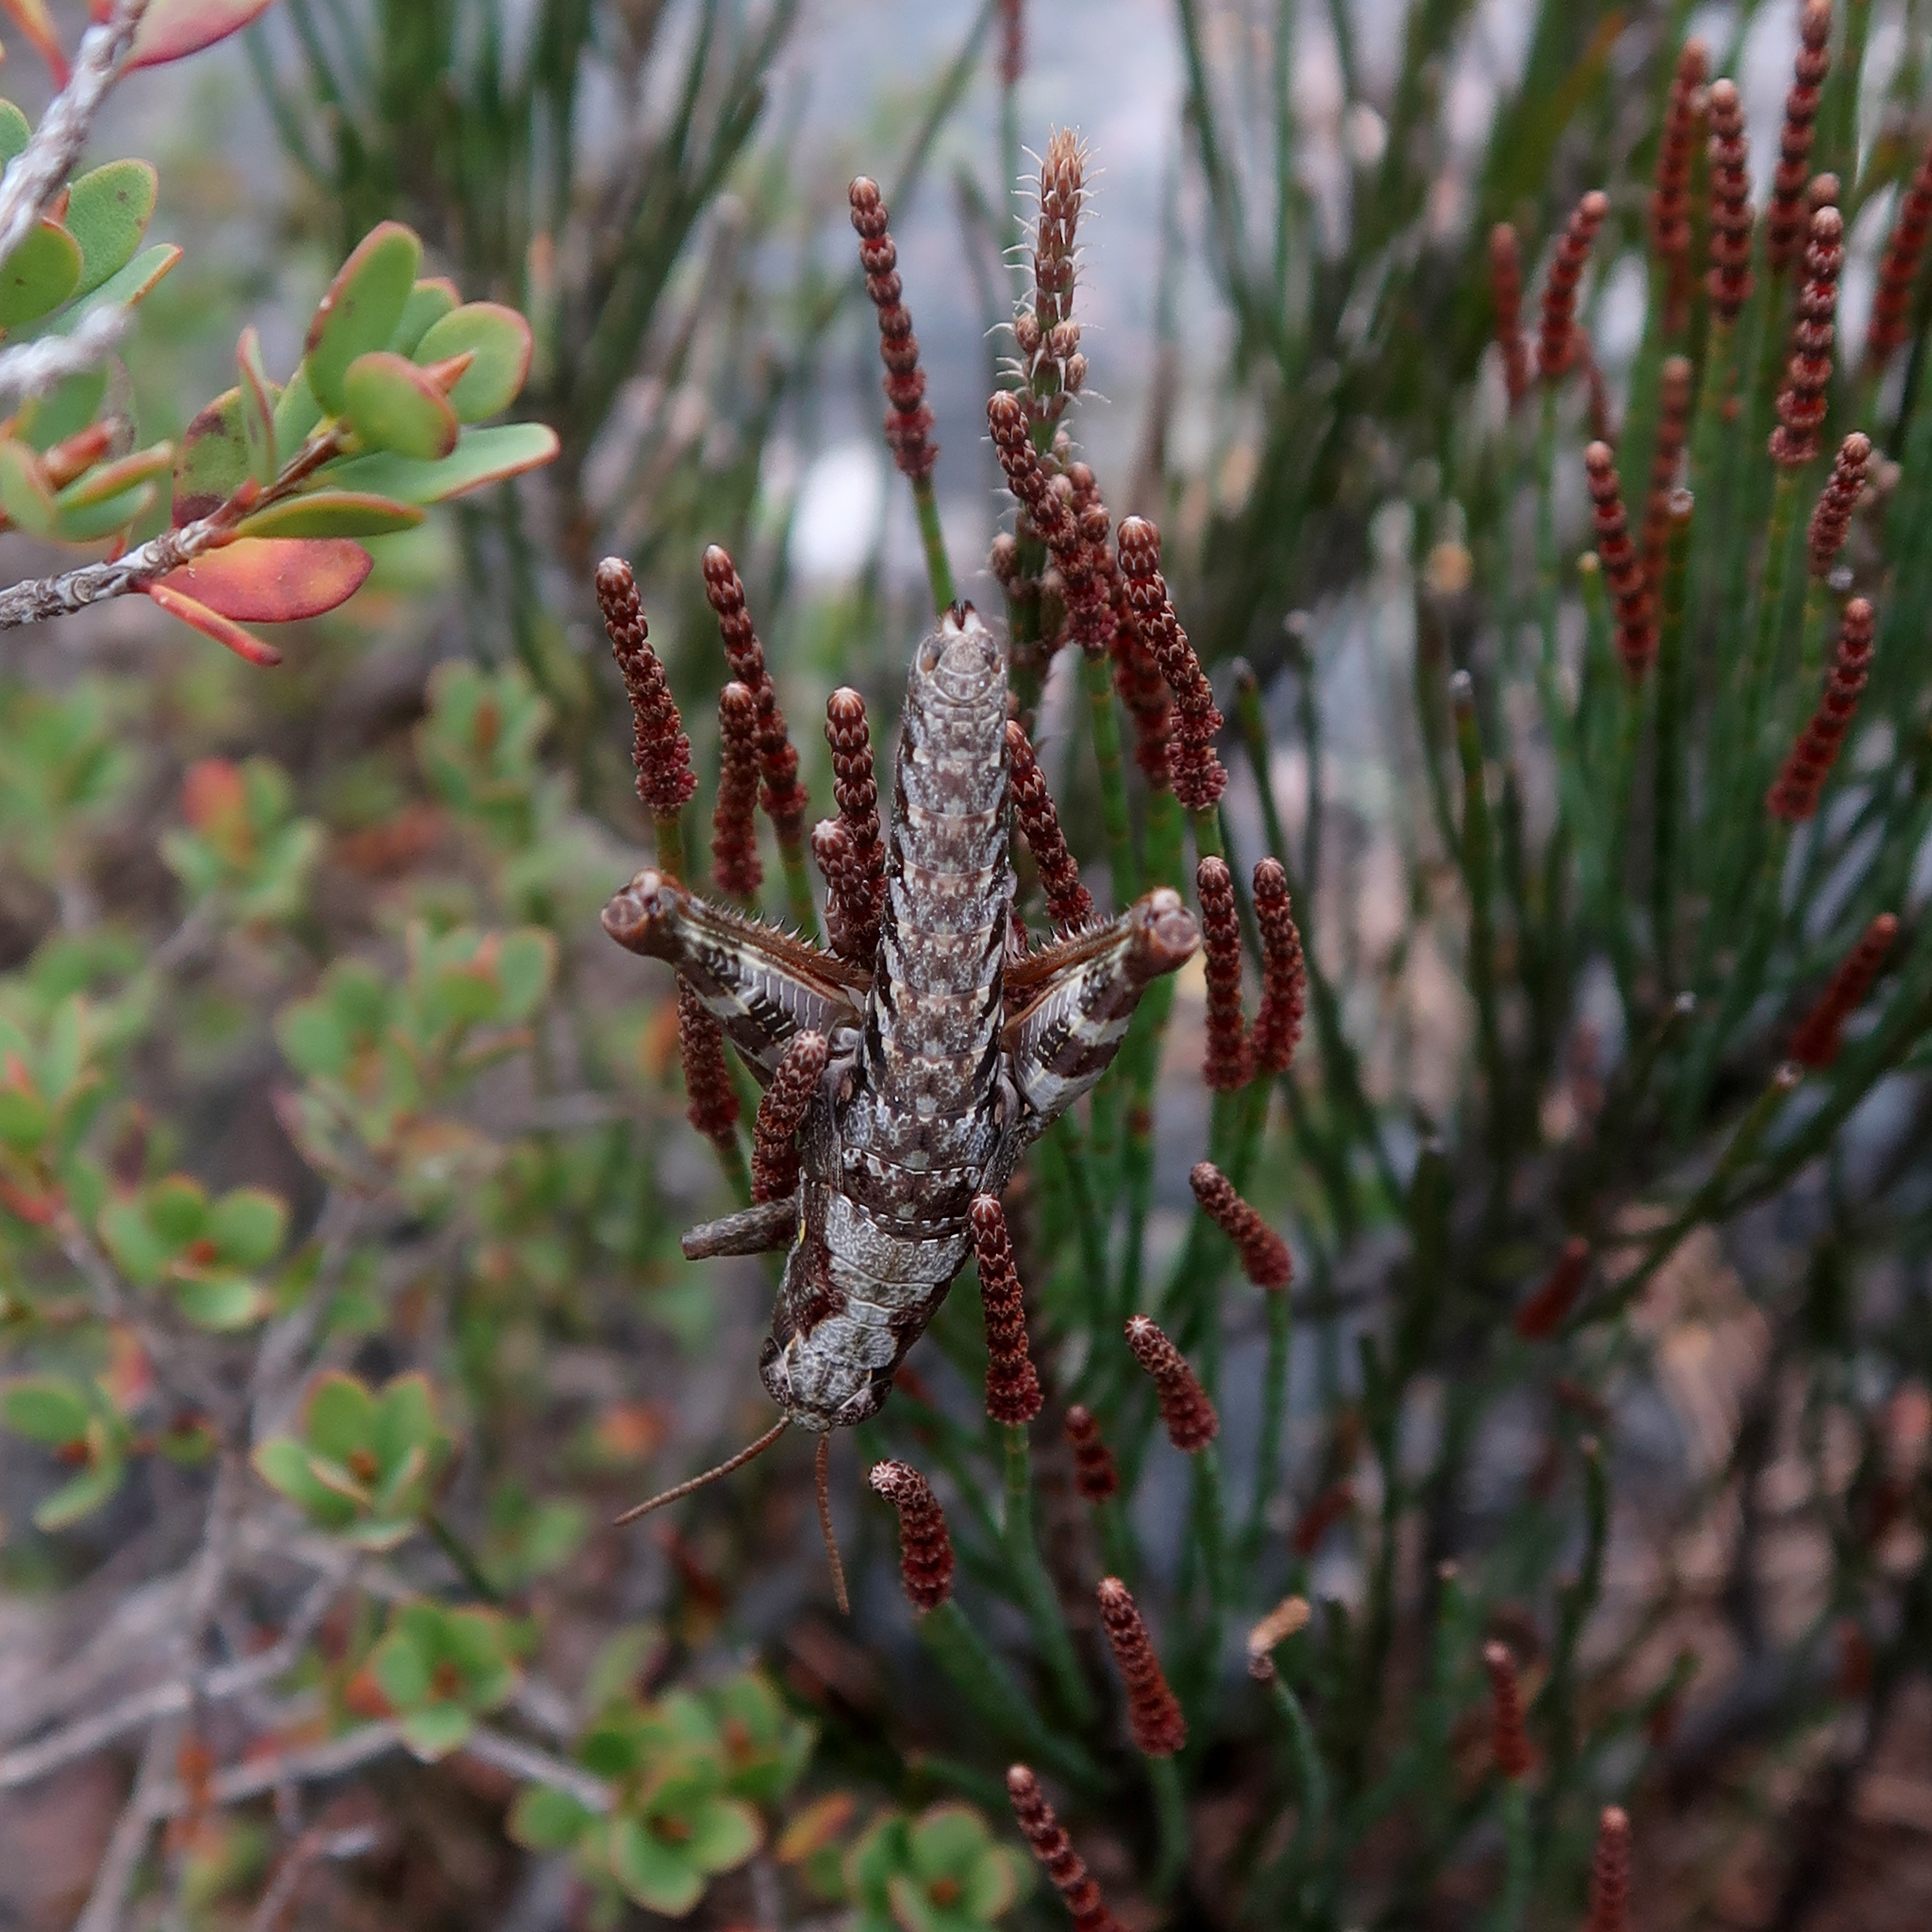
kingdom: Animalia
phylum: Arthropoda
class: Insecta
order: Orthoptera
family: Acrididae
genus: Tasmaniacris
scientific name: Tasmaniacris tasmaniensis
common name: Tasmanian grasshopper
